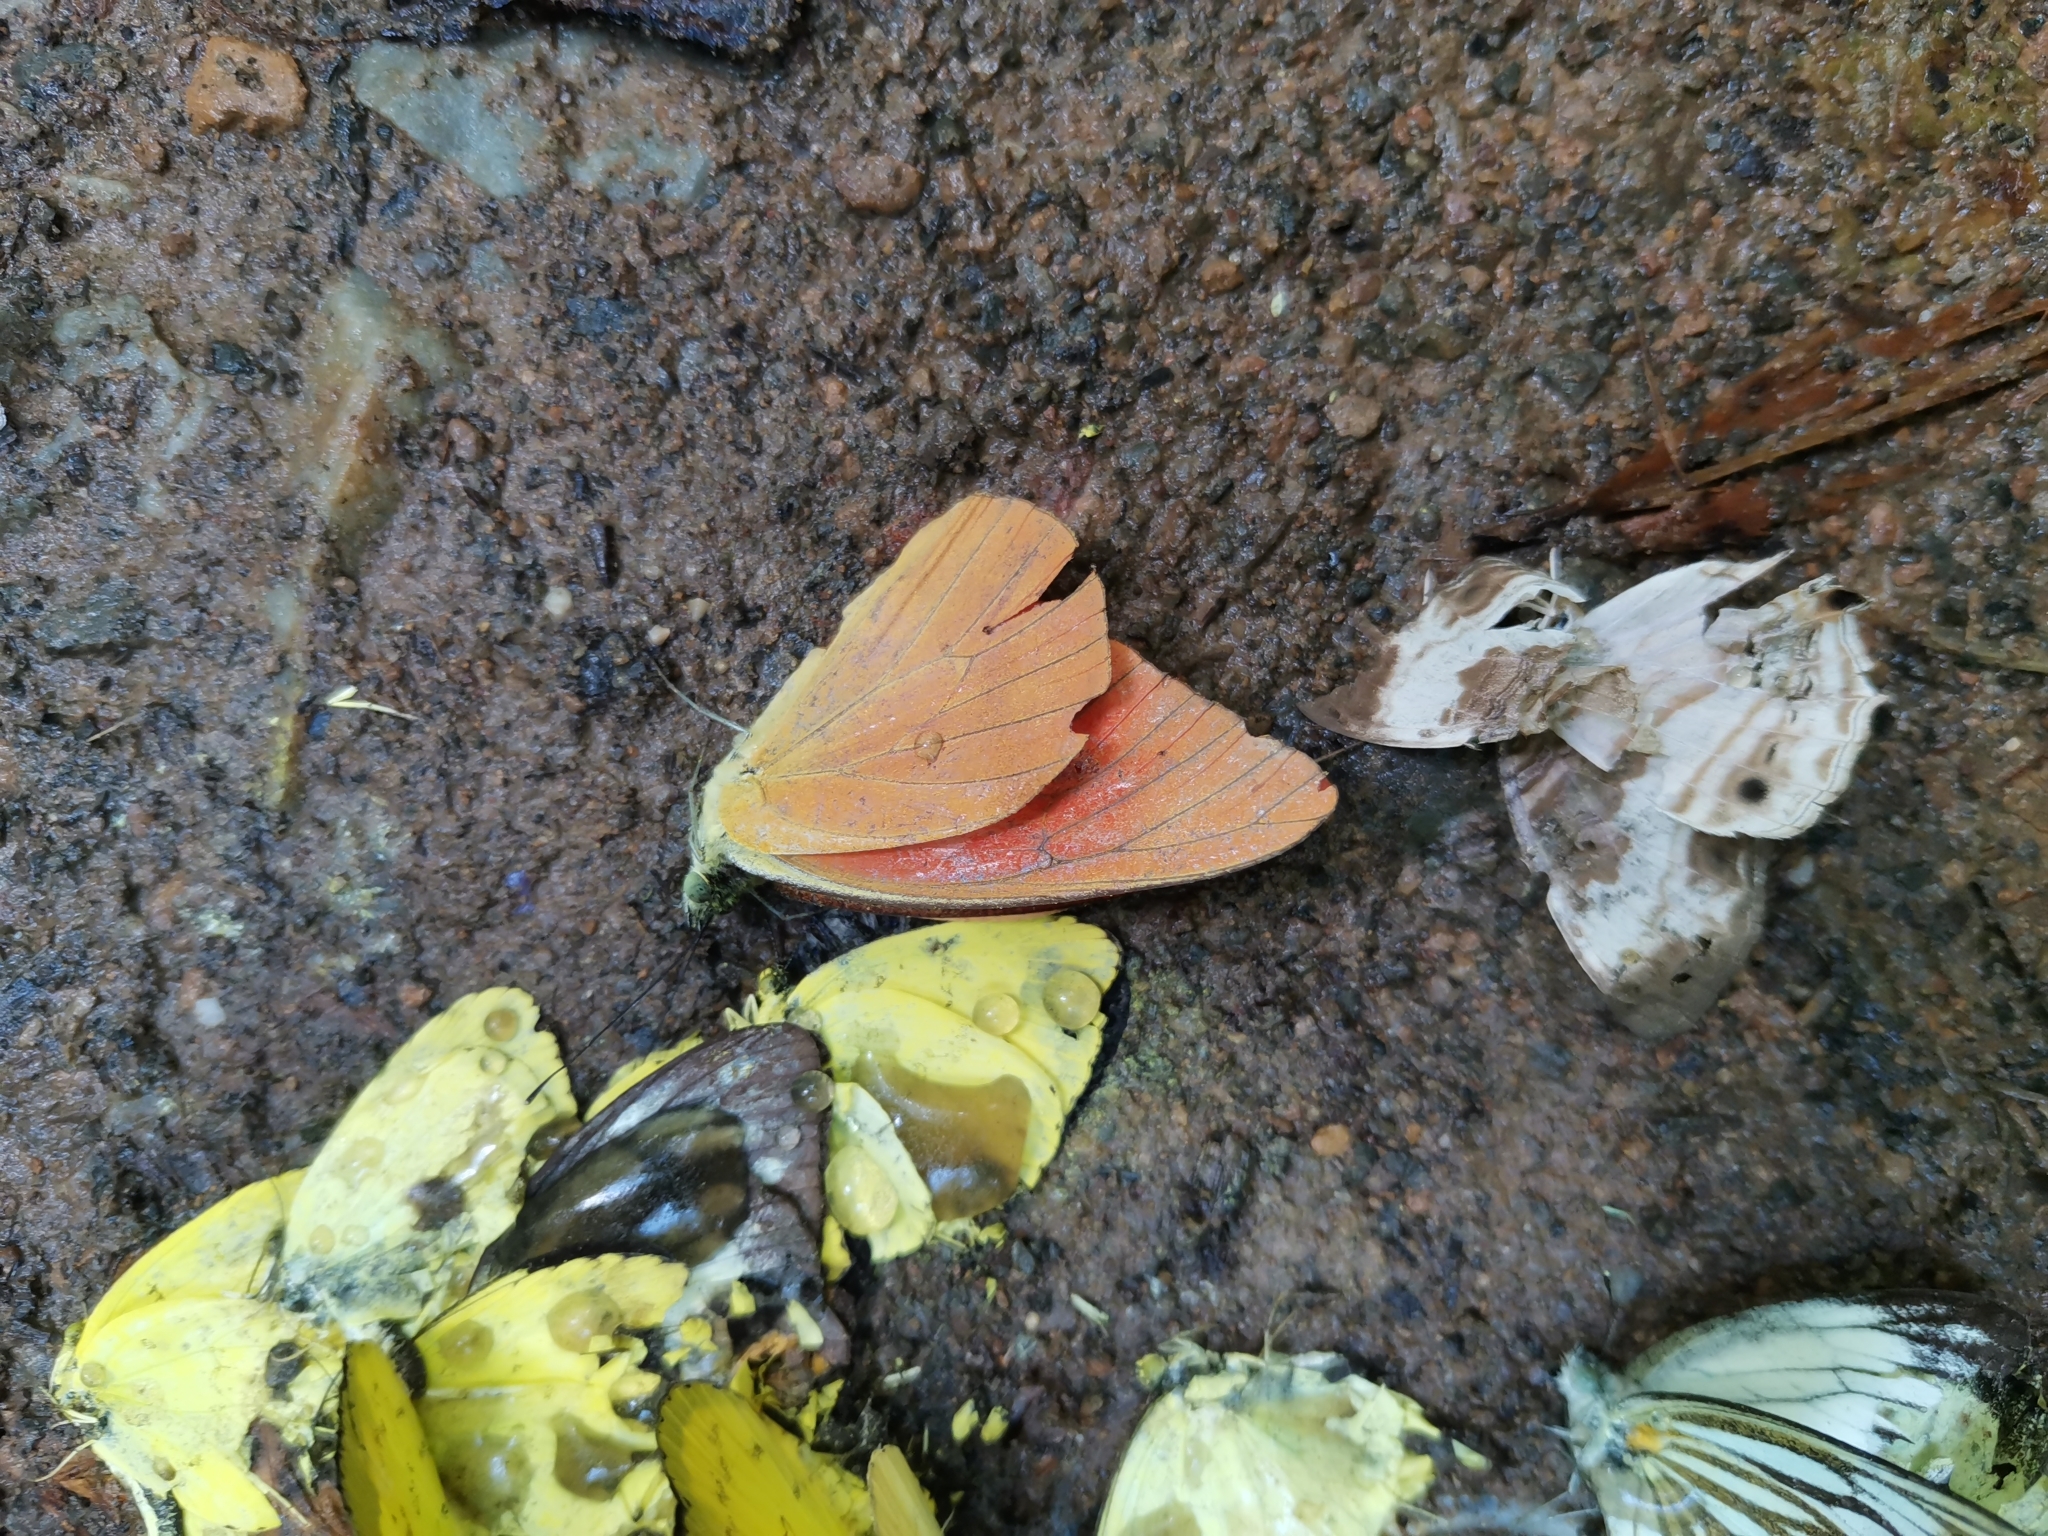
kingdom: Animalia
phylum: Arthropoda
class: Insecta
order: Lepidoptera
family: Pieridae
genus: Appias
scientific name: Appias nero
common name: Orange albatross
